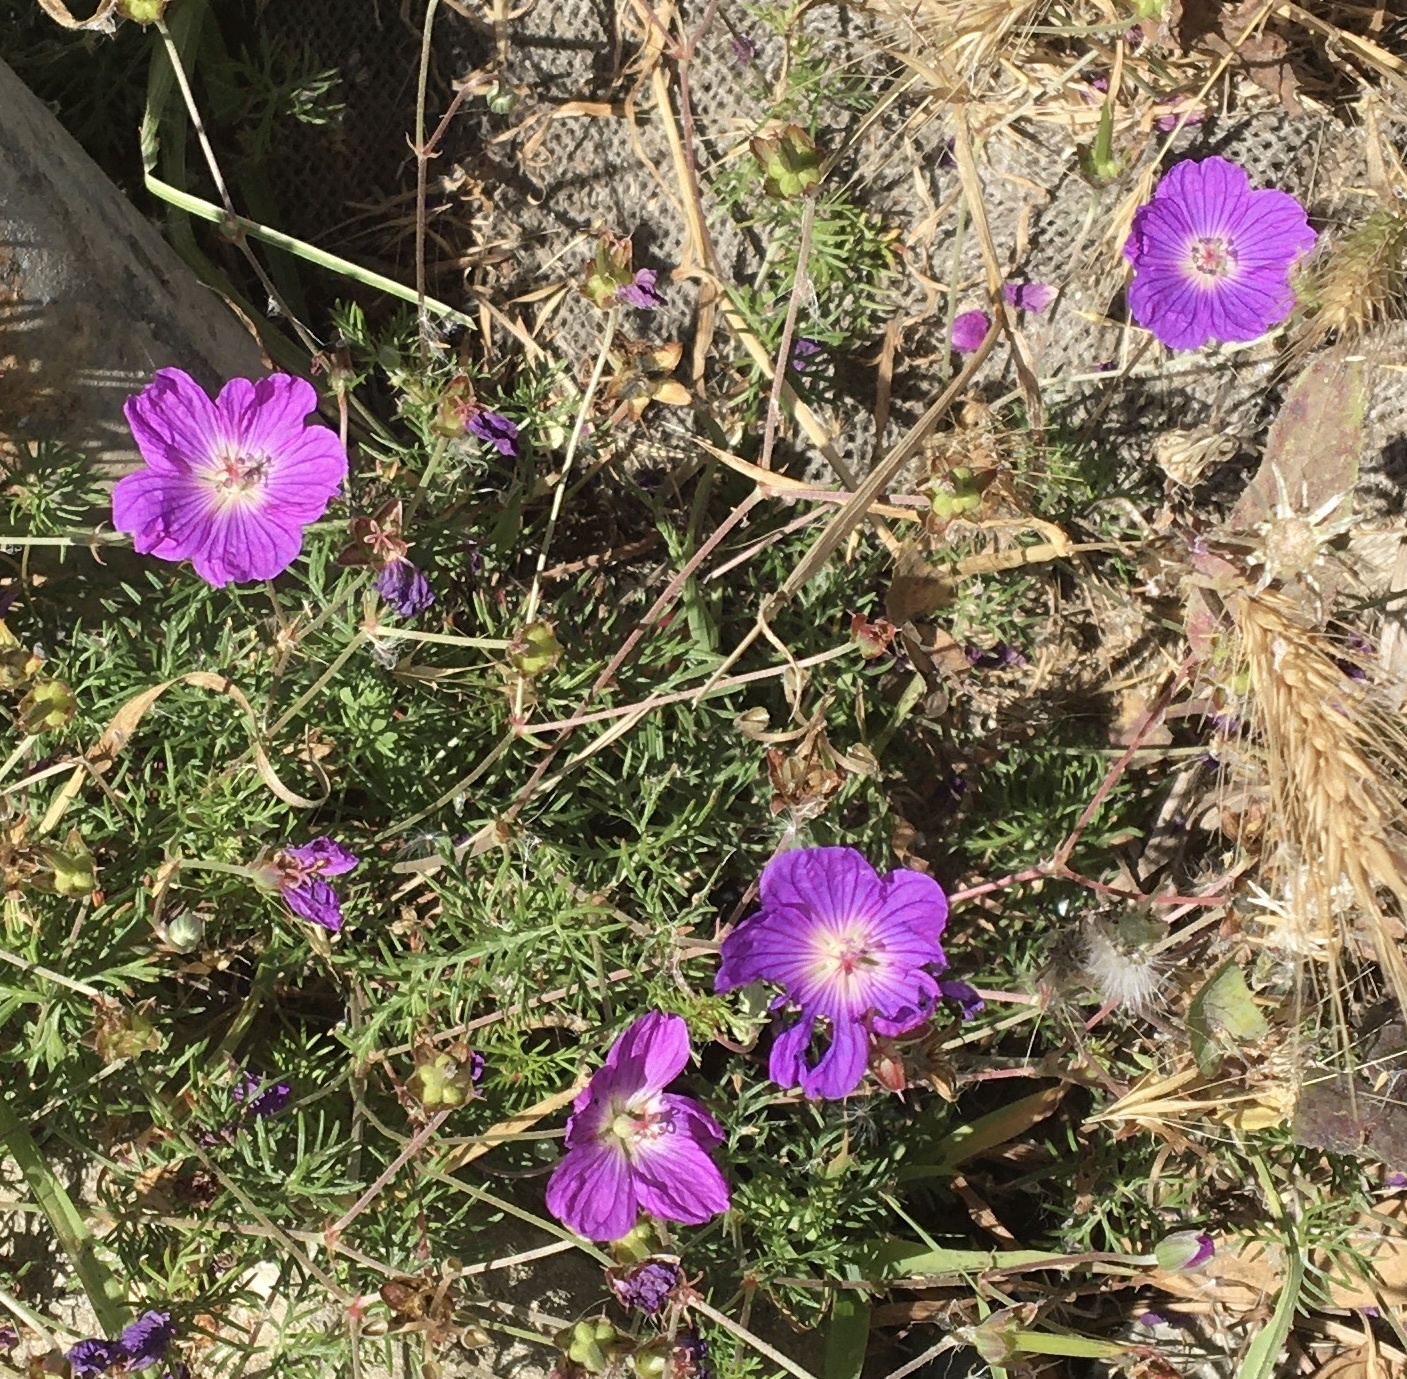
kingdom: Plantae
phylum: Tracheophyta
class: Magnoliopsida
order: Geraniales
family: Geraniaceae
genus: Geranium
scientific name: Geranium incanum
